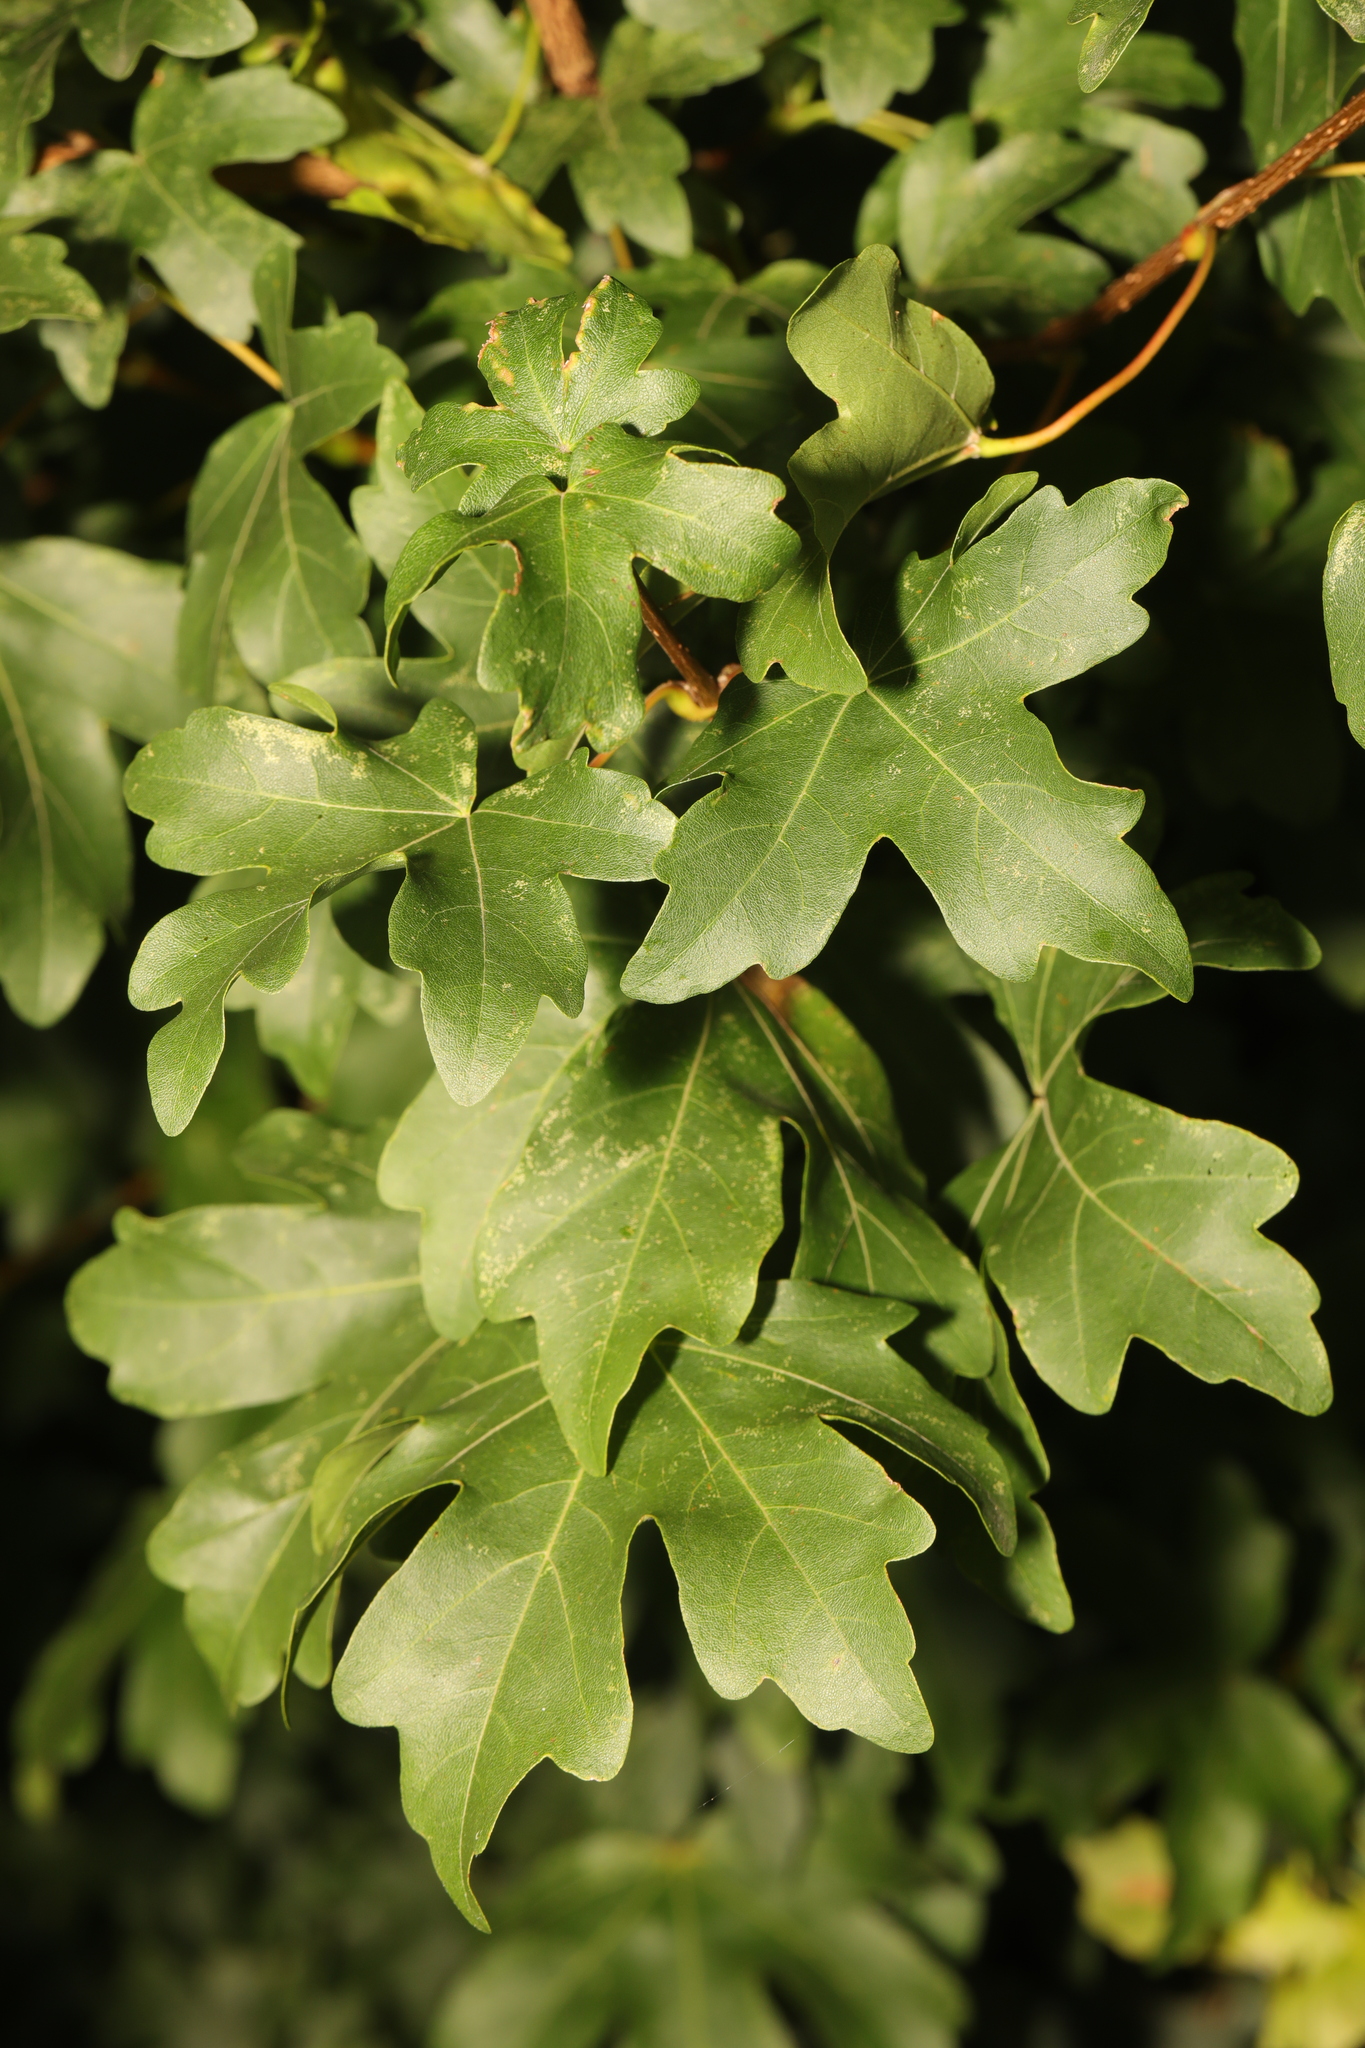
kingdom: Plantae
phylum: Tracheophyta
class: Magnoliopsida
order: Sapindales
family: Sapindaceae
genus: Acer
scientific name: Acer campestre
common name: Field maple
